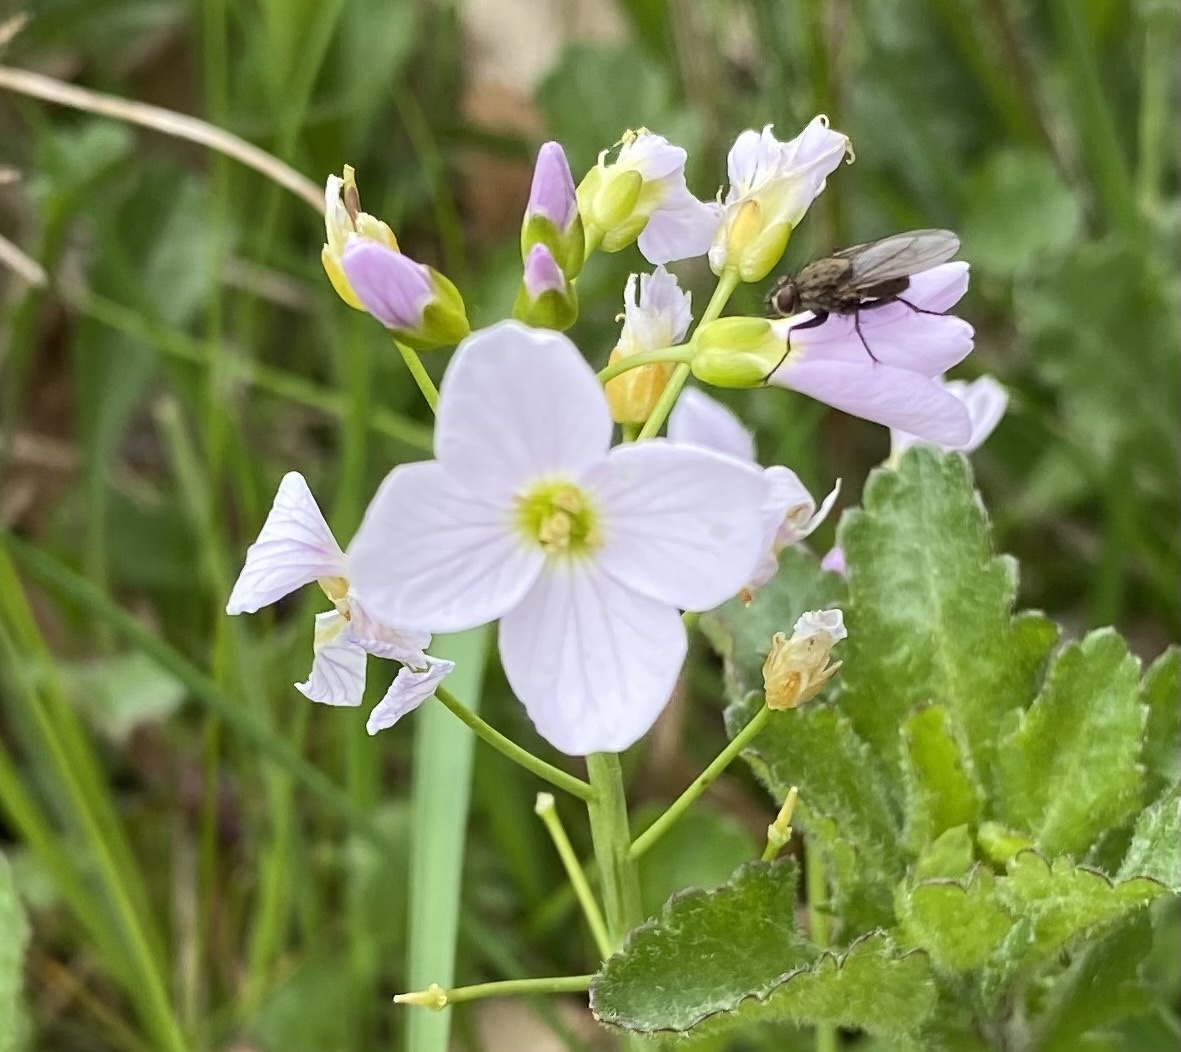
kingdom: Plantae
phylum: Tracheophyta
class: Magnoliopsida
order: Brassicales
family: Brassicaceae
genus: Cardamine
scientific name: Cardamine pratensis
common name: Cuckoo flower
